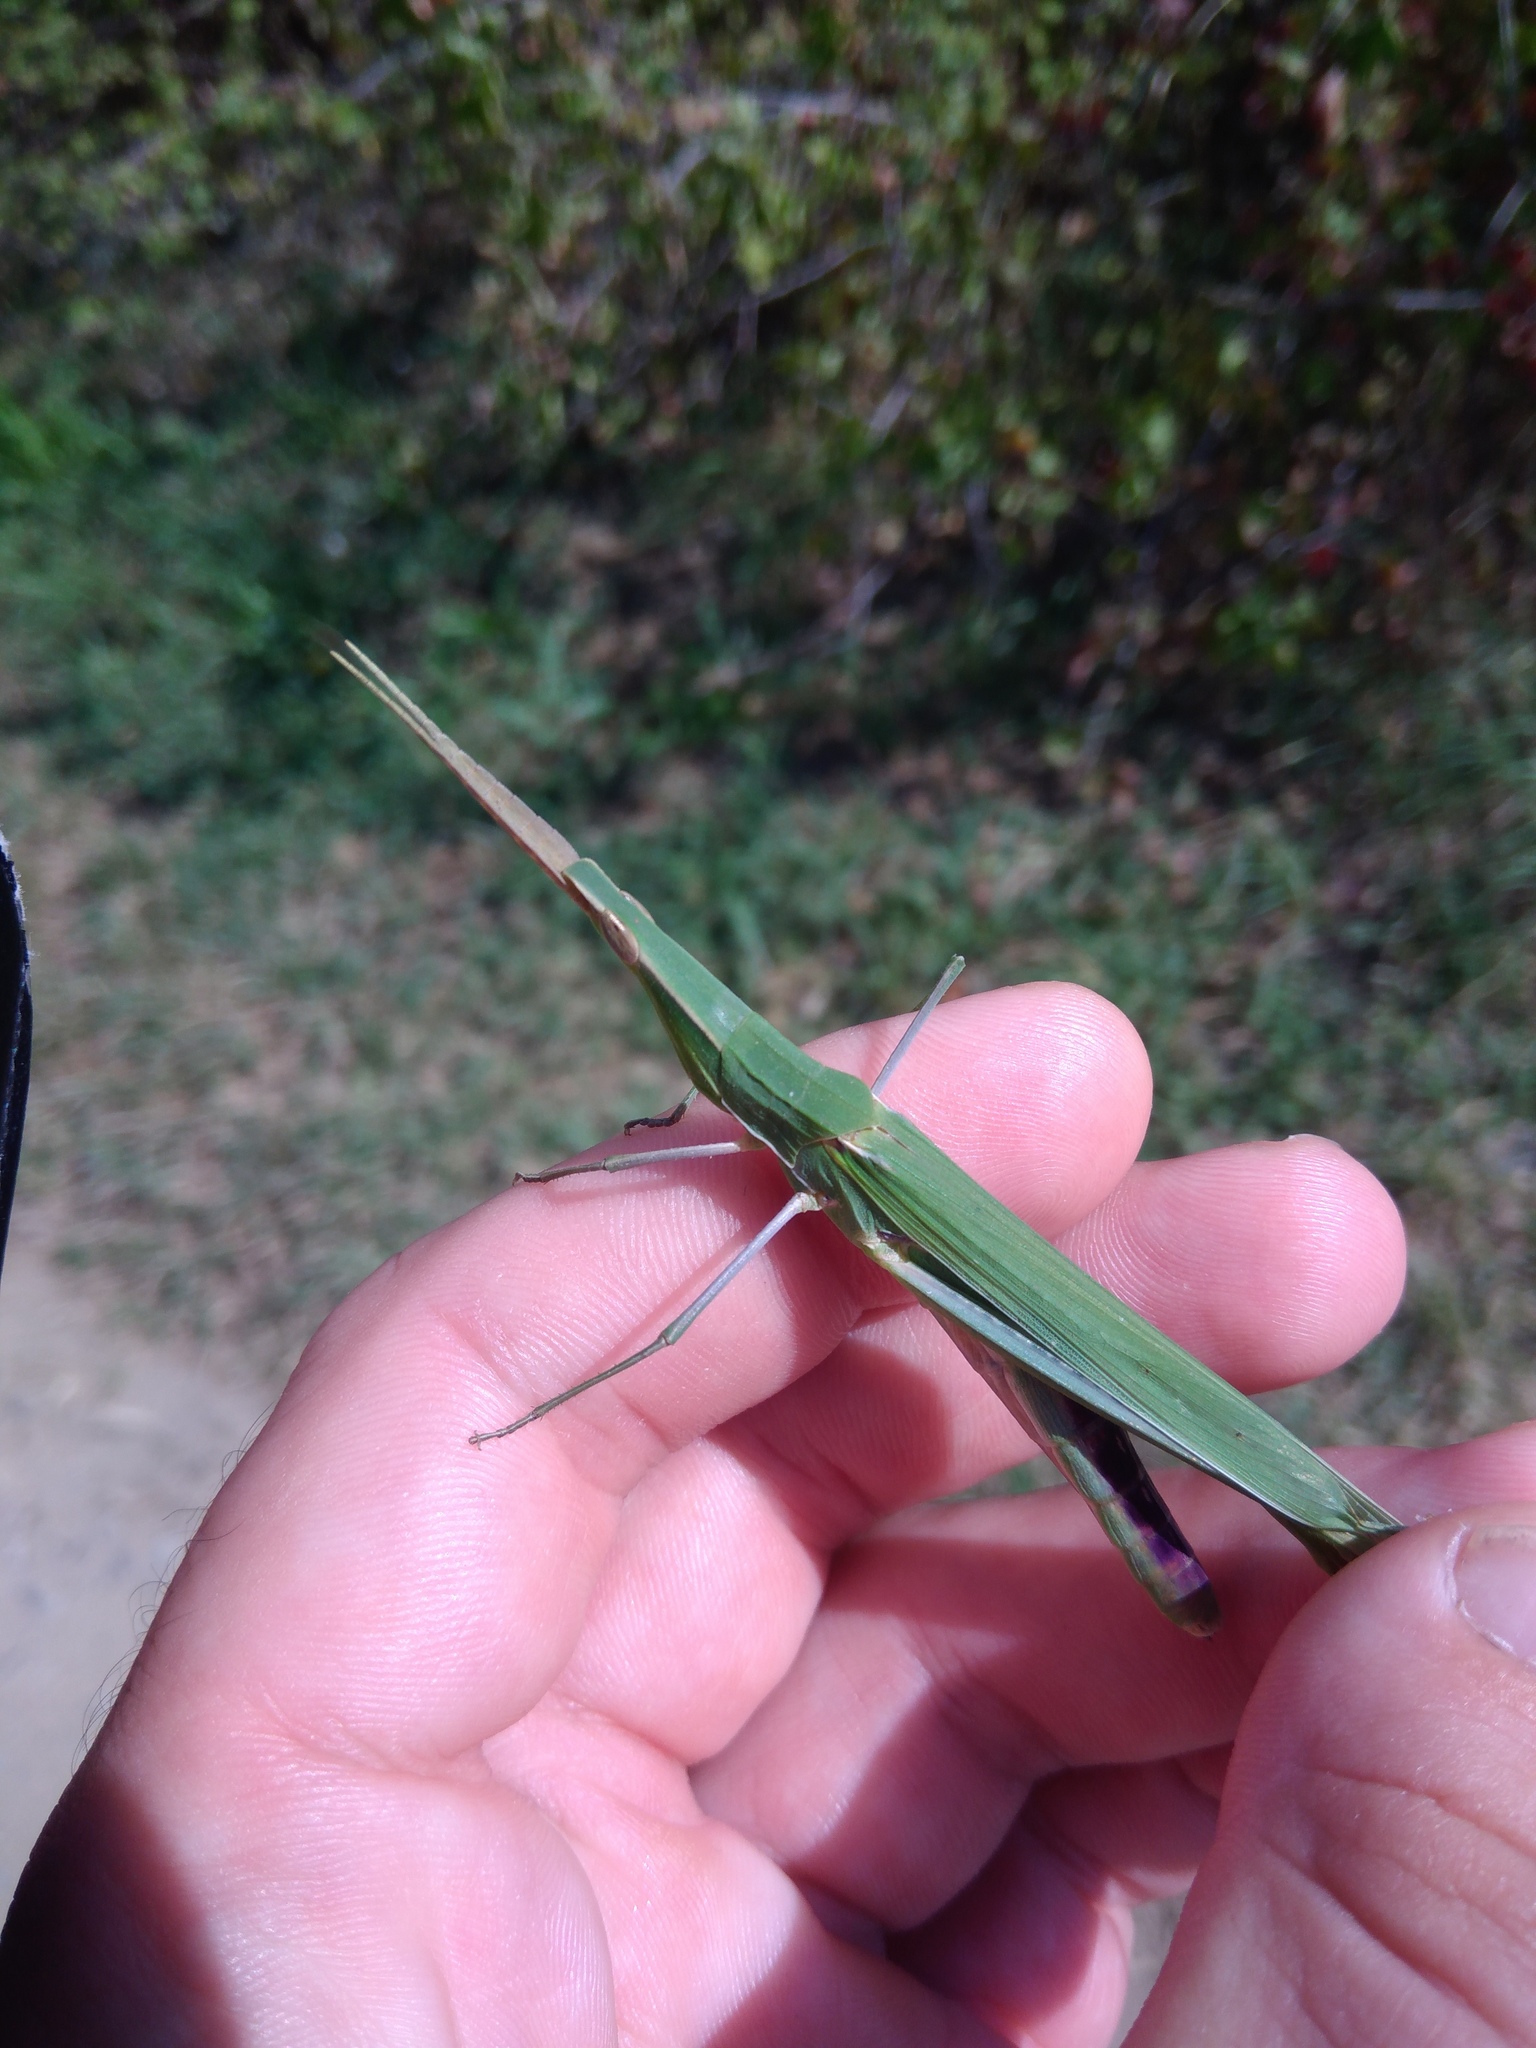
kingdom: Animalia
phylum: Arthropoda
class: Insecta
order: Orthoptera
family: Acrididae
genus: Acrida
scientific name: Acrida ungarica
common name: Common cone-headed grasshopper
